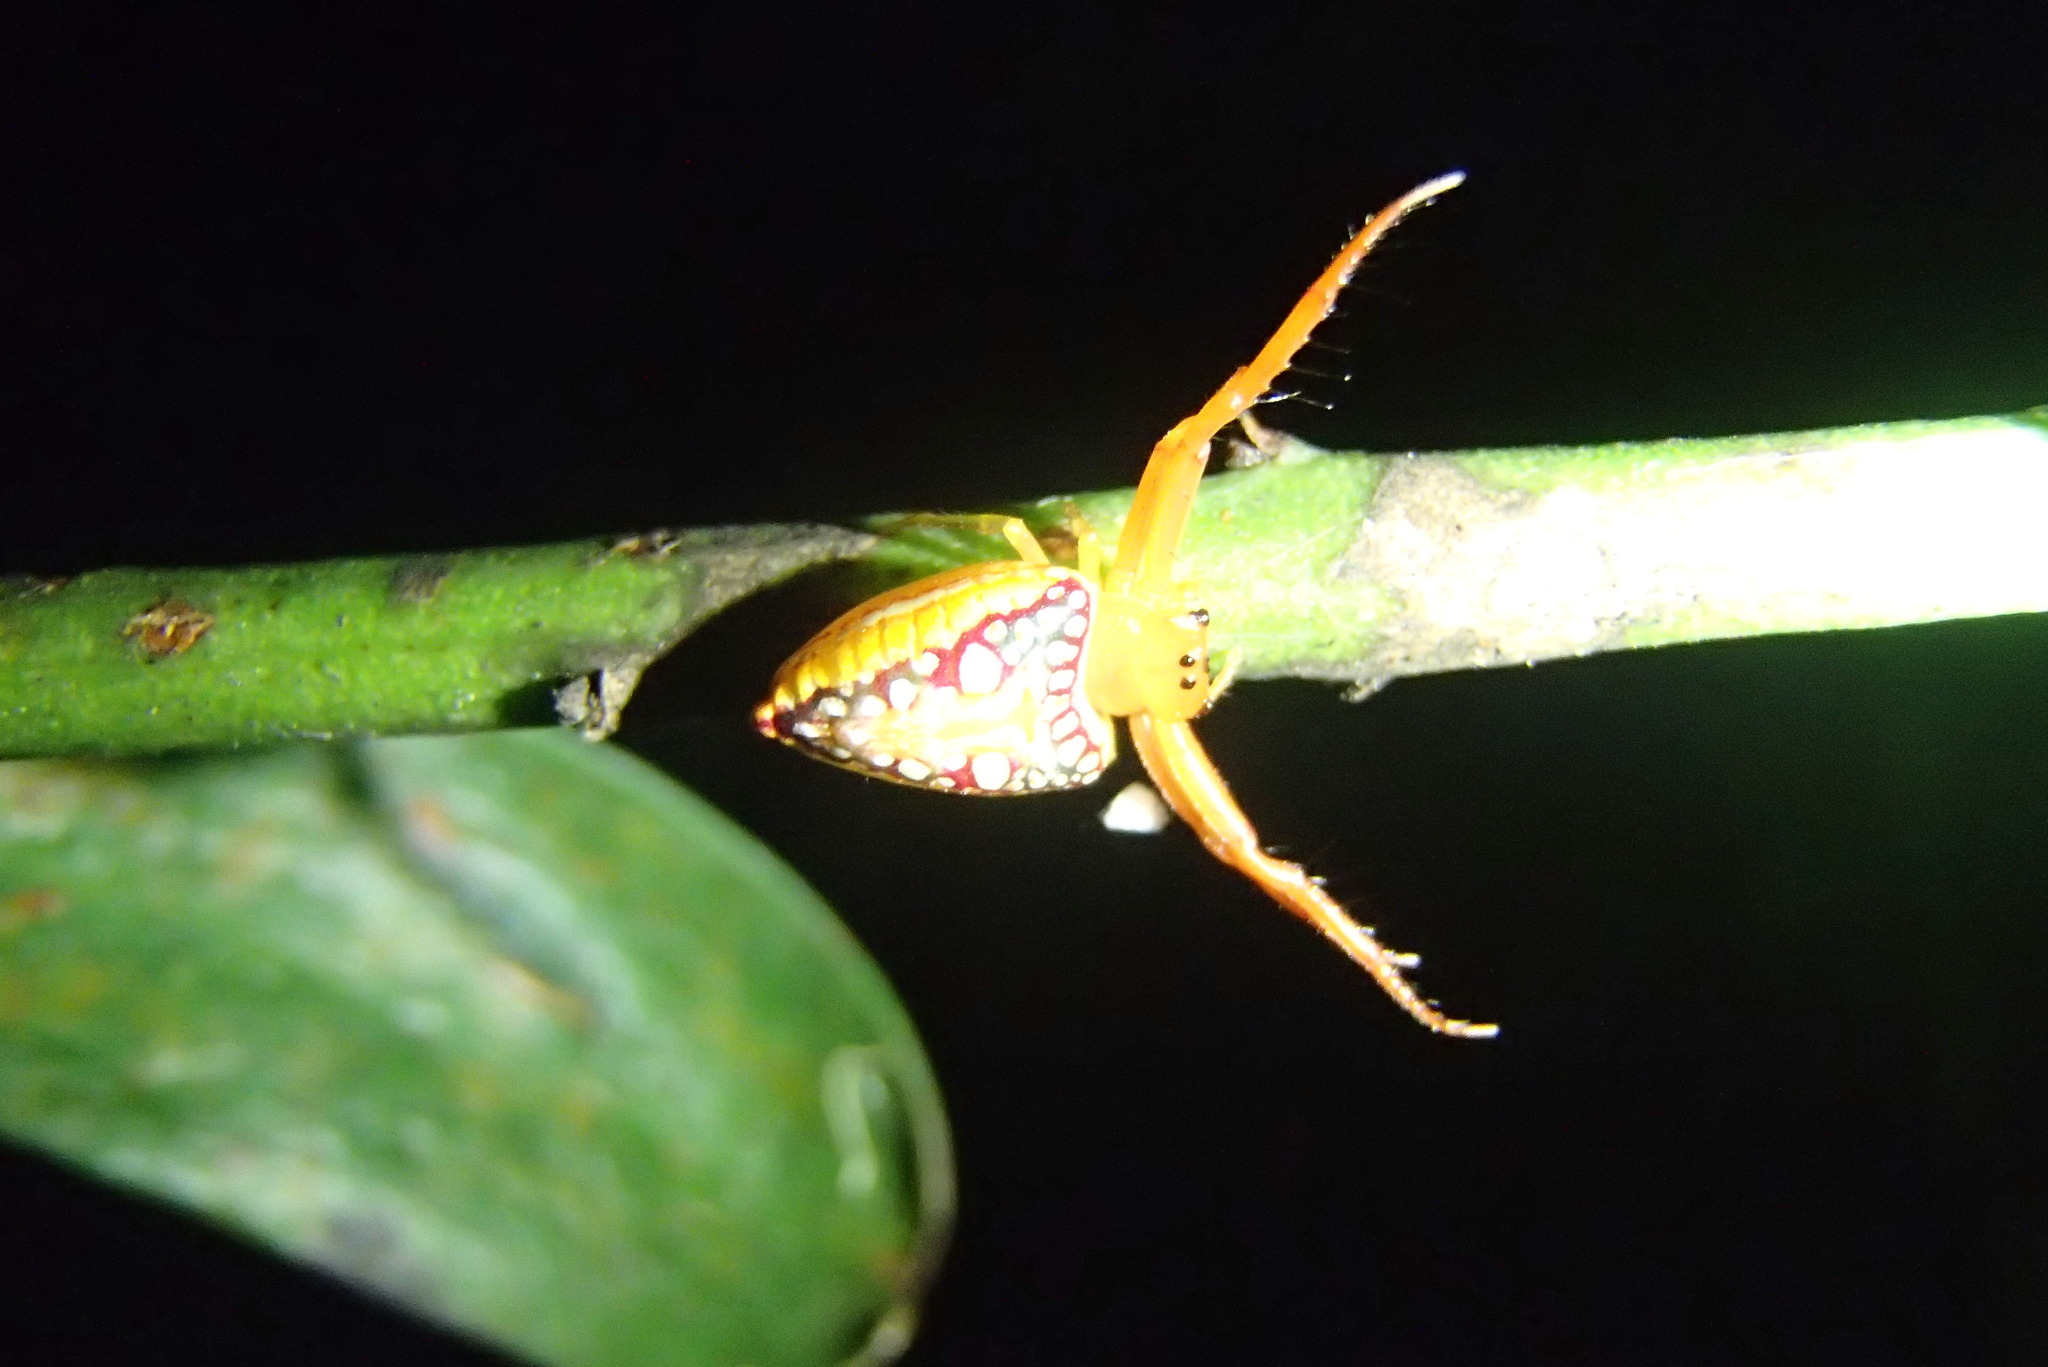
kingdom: Animalia
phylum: Arthropoda
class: Arachnida
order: Araneae
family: Arkyidae
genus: Arkys
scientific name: Arkys walckenaeri
